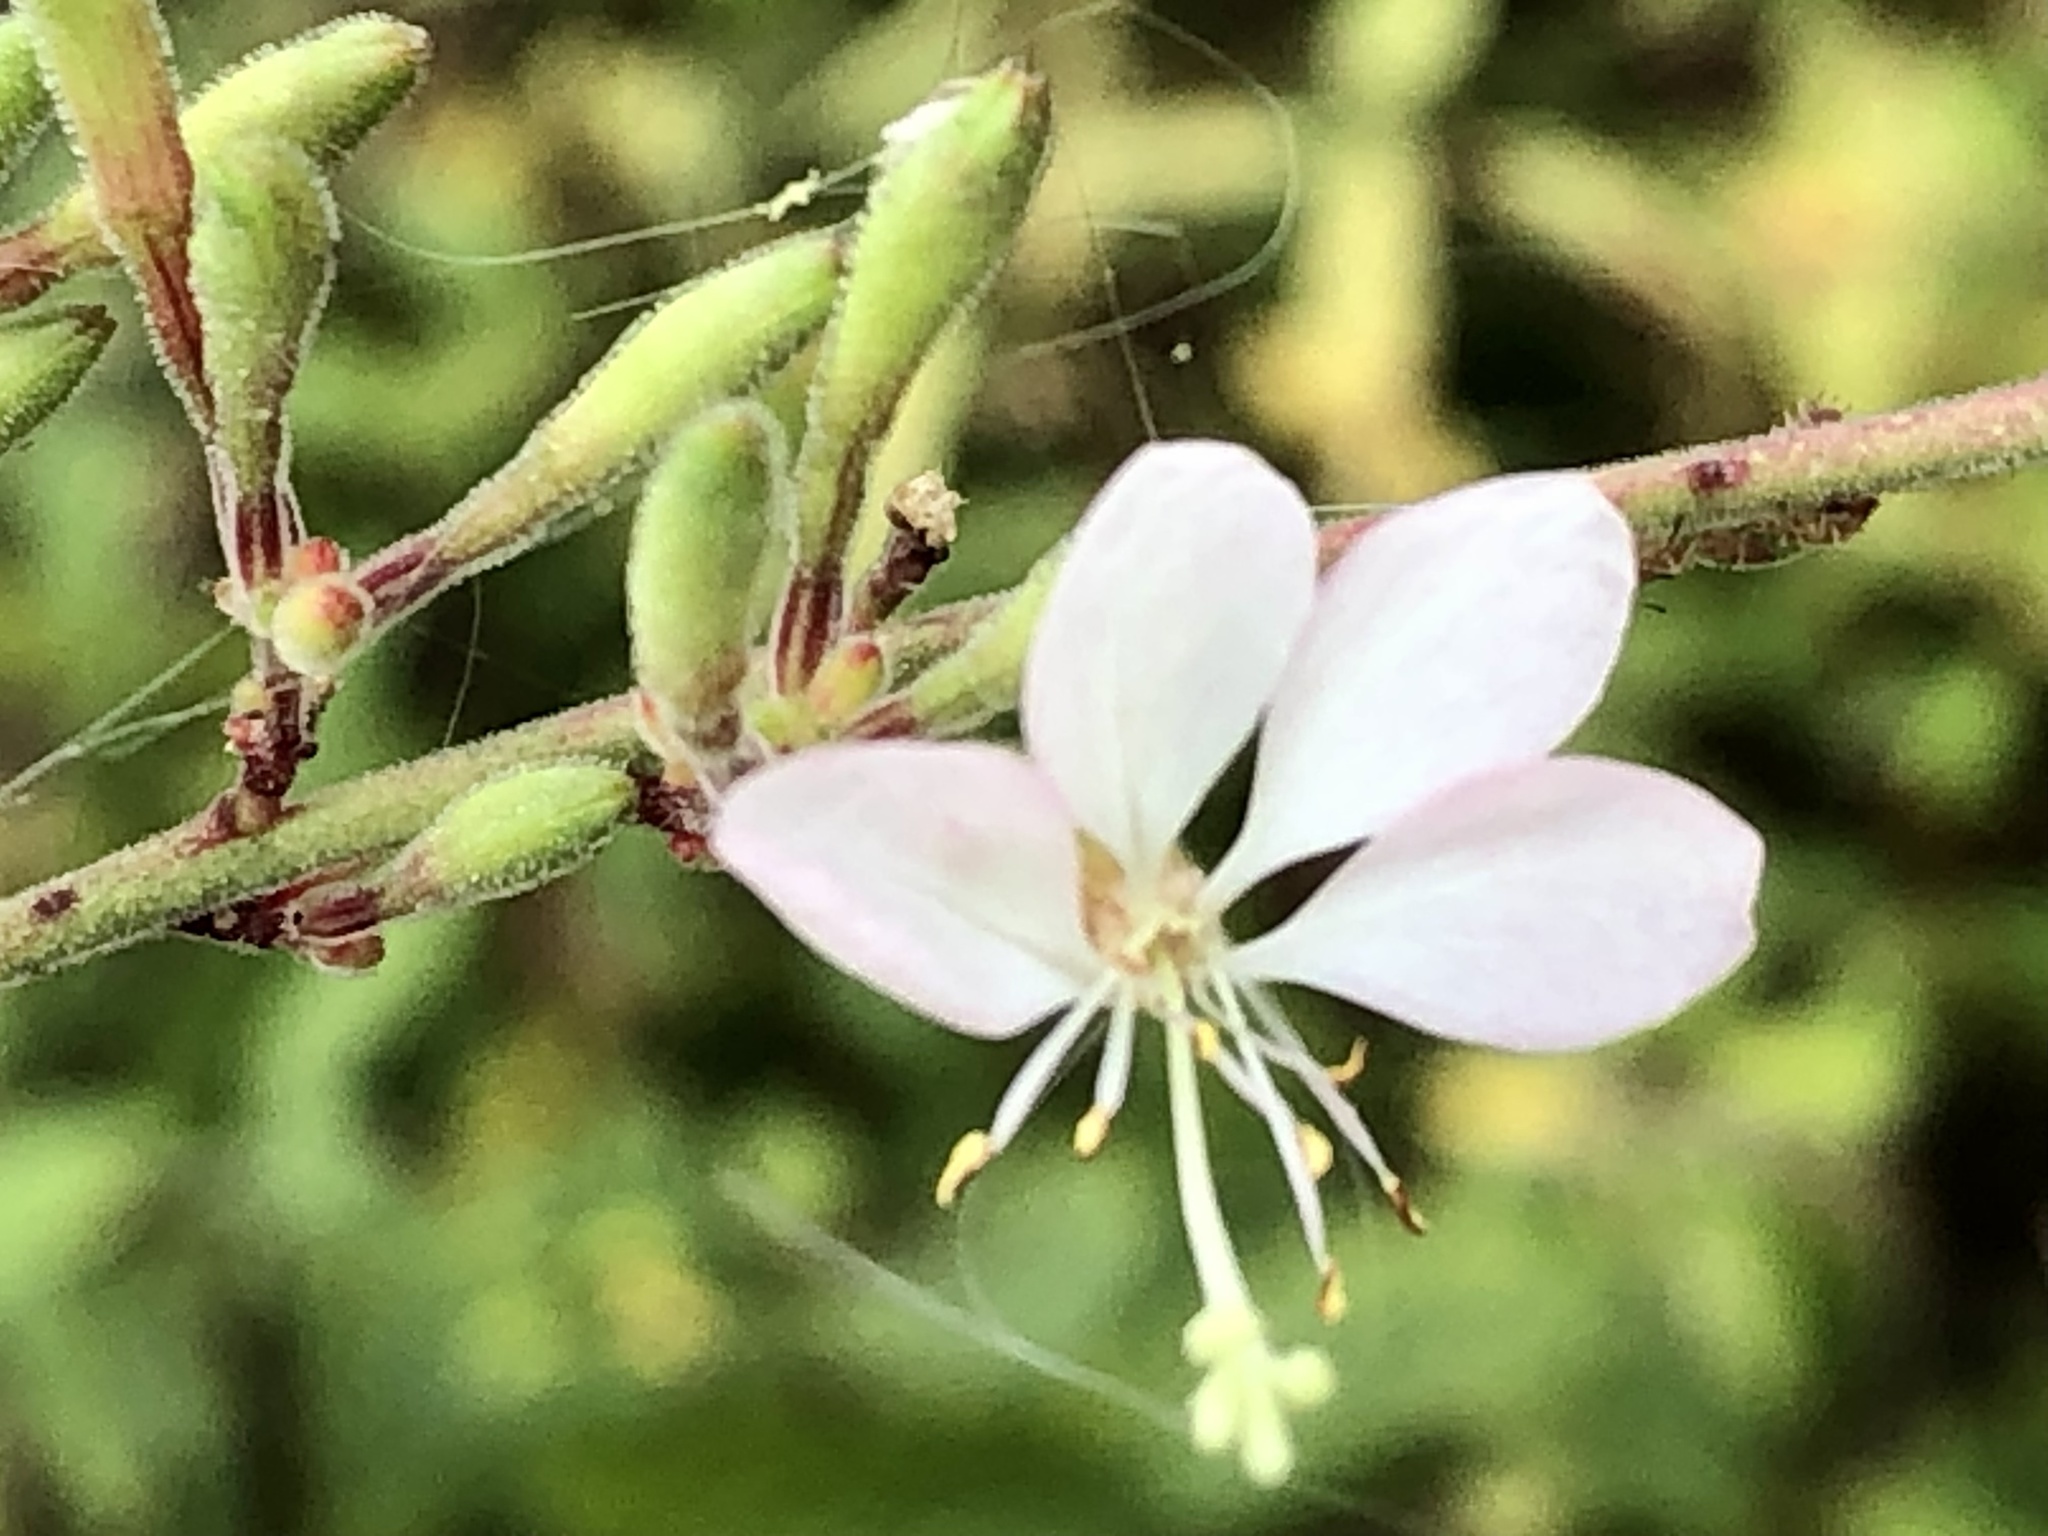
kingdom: Plantae
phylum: Tracheophyta
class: Magnoliopsida
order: Myrtales
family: Onagraceae
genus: Oenothera
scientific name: Oenothera gaura
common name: Biennial beeblossom
